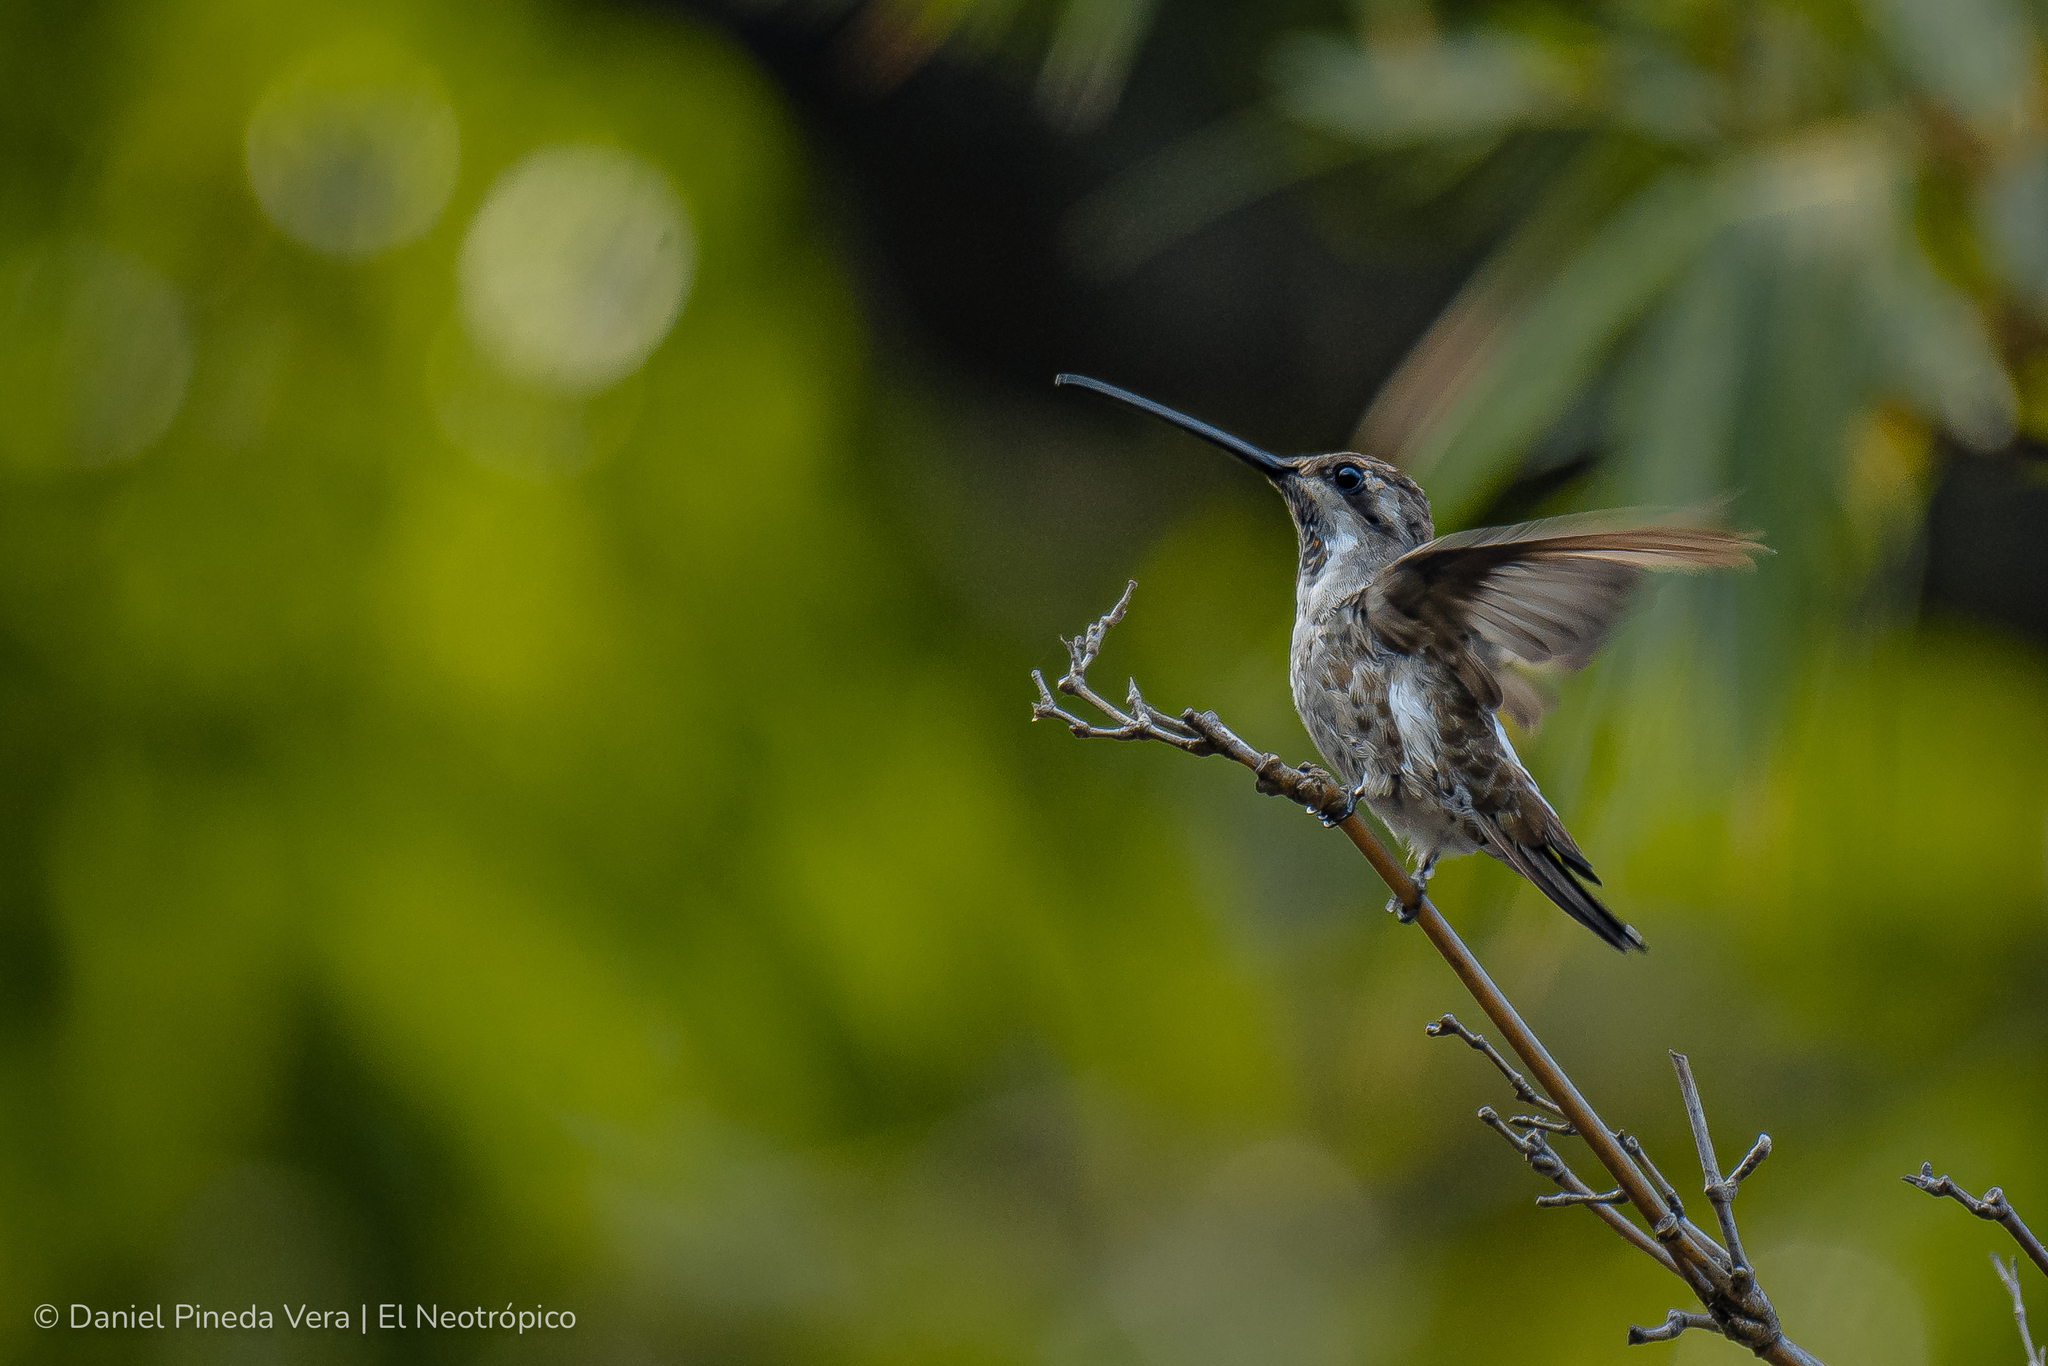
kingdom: Animalia
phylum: Chordata
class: Aves
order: Apodiformes
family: Trochilidae
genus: Heliomaster
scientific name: Heliomaster constantii
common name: Plain-capped starthroat
